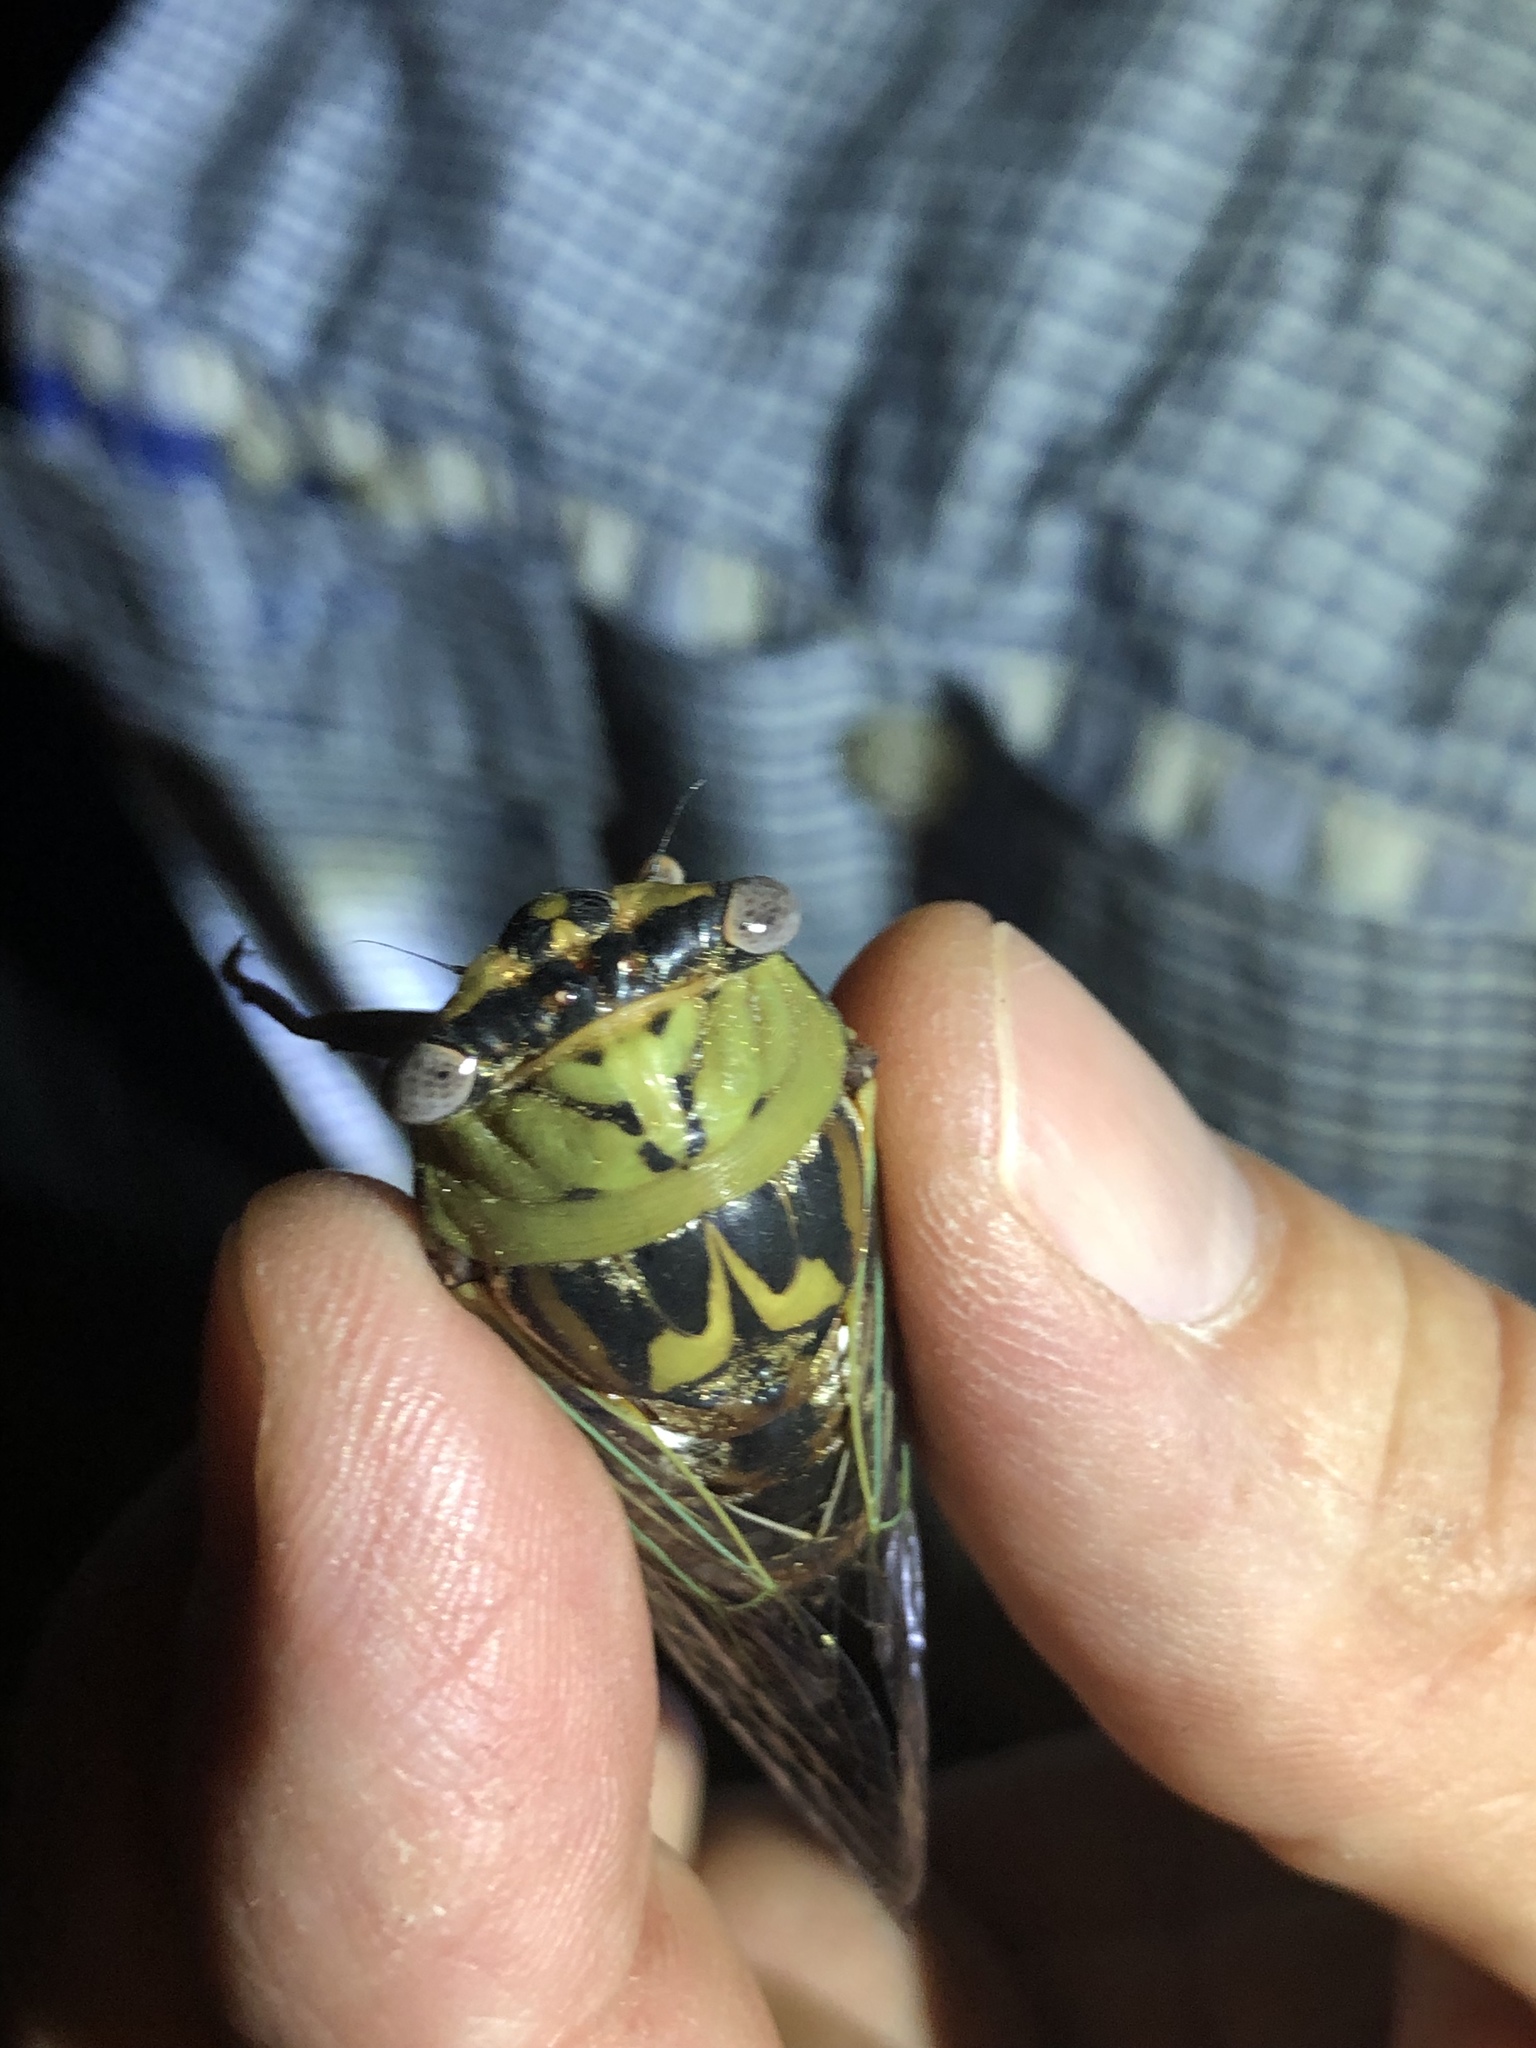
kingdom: Animalia
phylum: Arthropoda
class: Insecta
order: Hemiptera
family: Cicadidae
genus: Megatibicen
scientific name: Megatibicen resh
